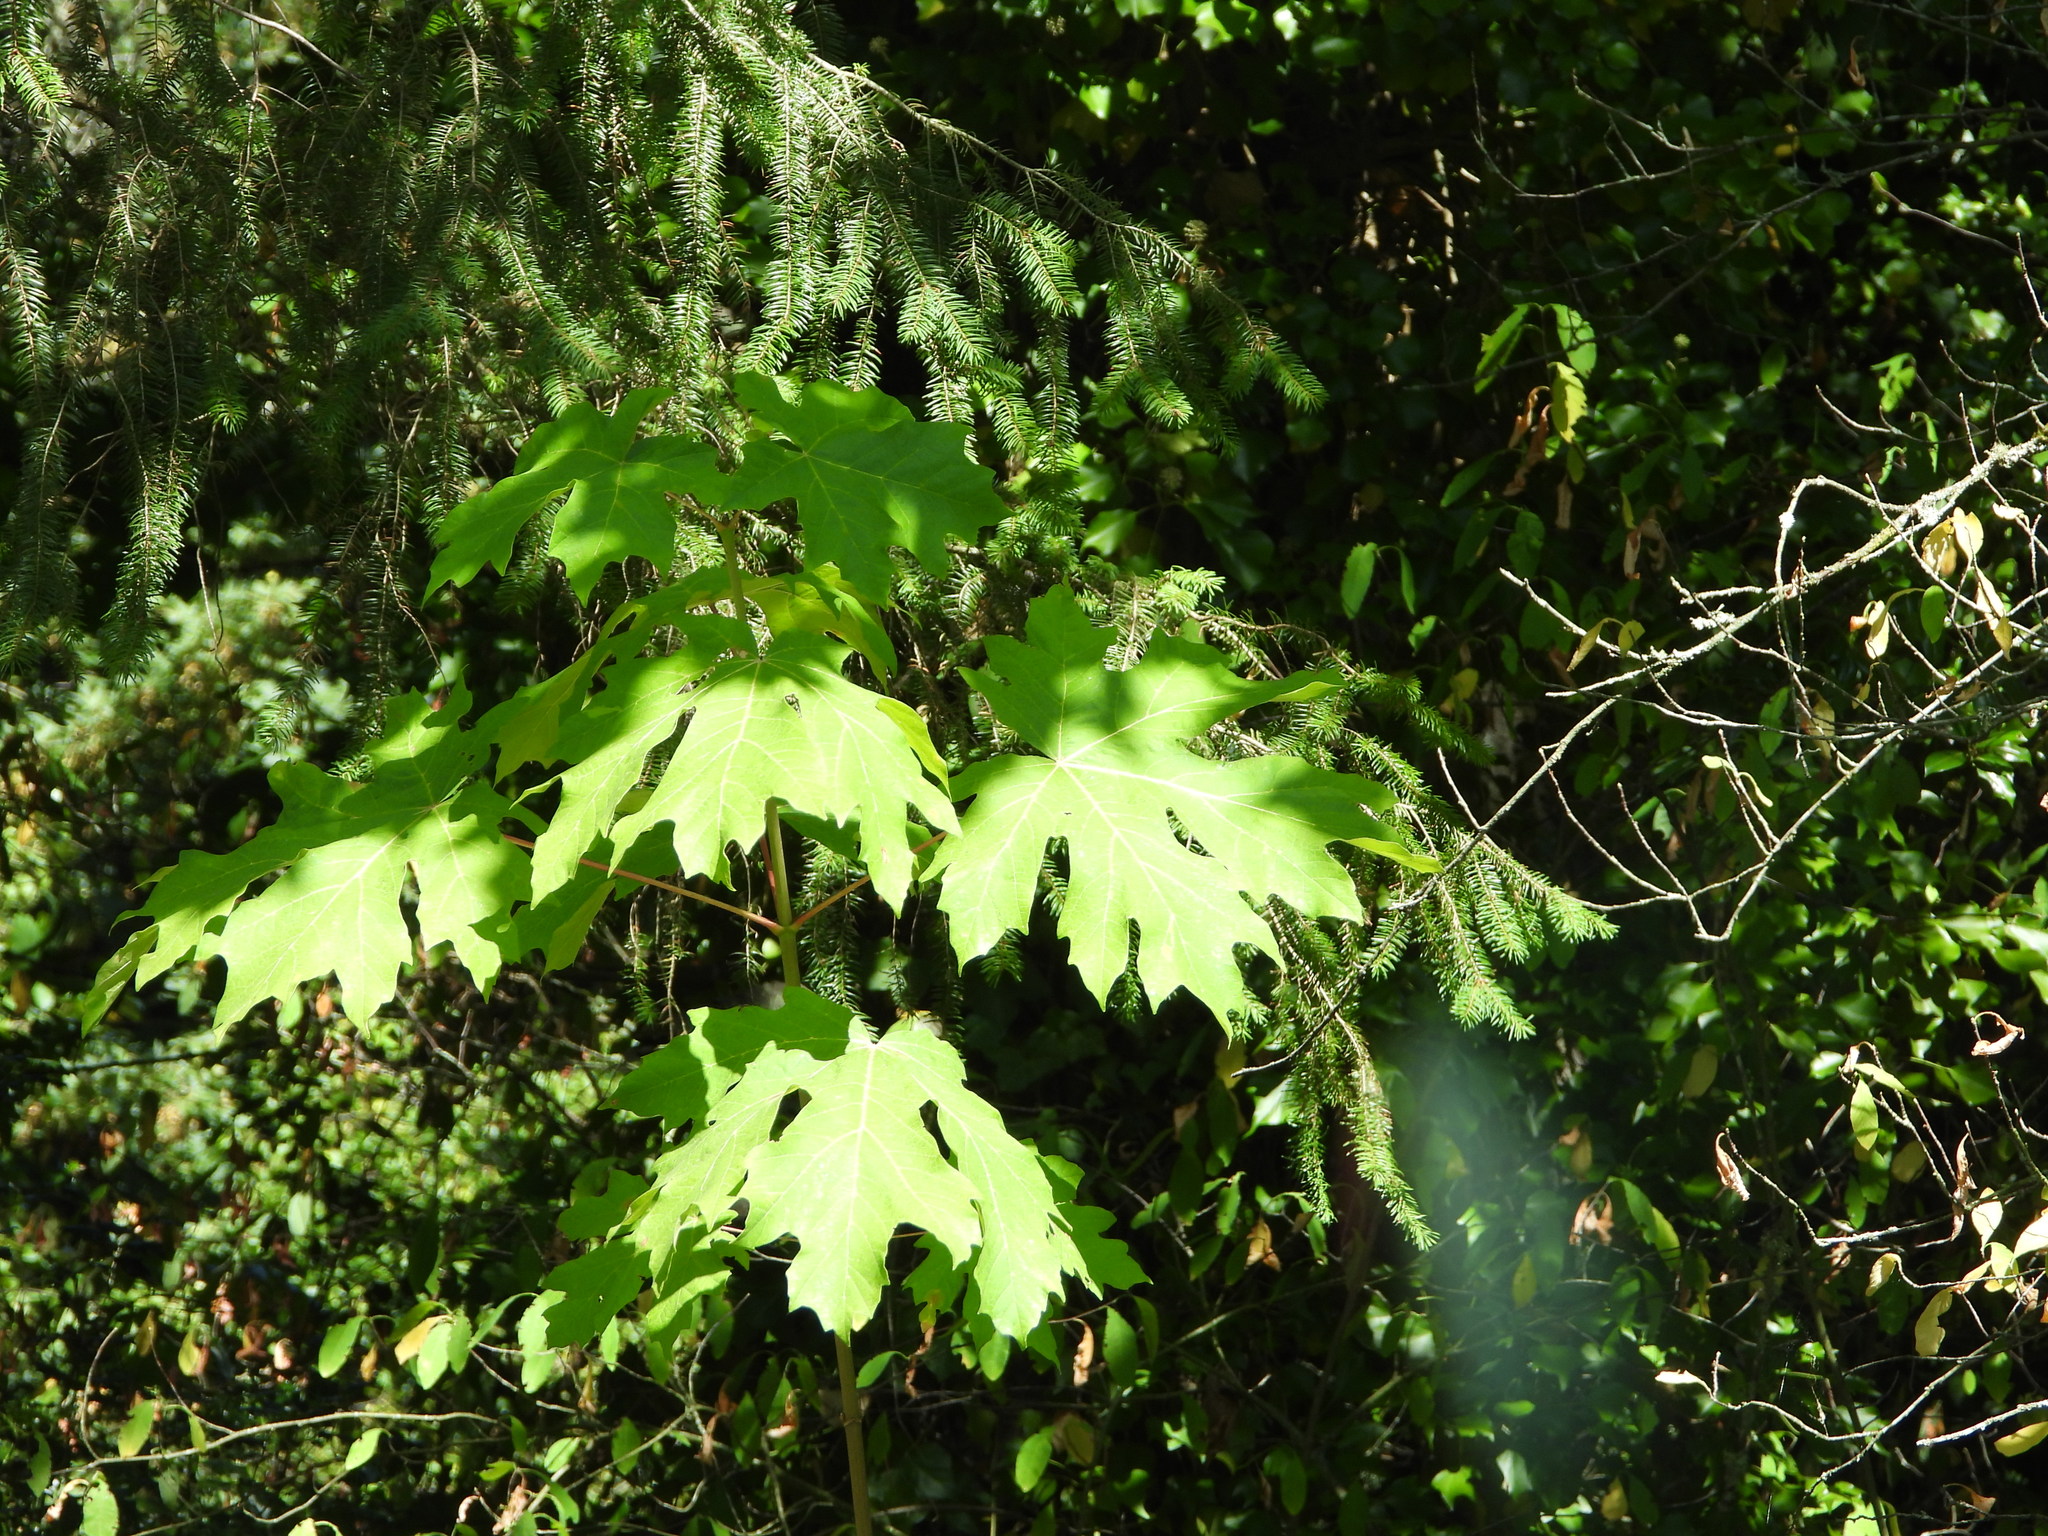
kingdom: Plantae
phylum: Tracheophyta
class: Magnoliopsida
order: Sapindales
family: Sapindaceae
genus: Acer
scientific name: Acer macrophyllum
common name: Oregon maple
